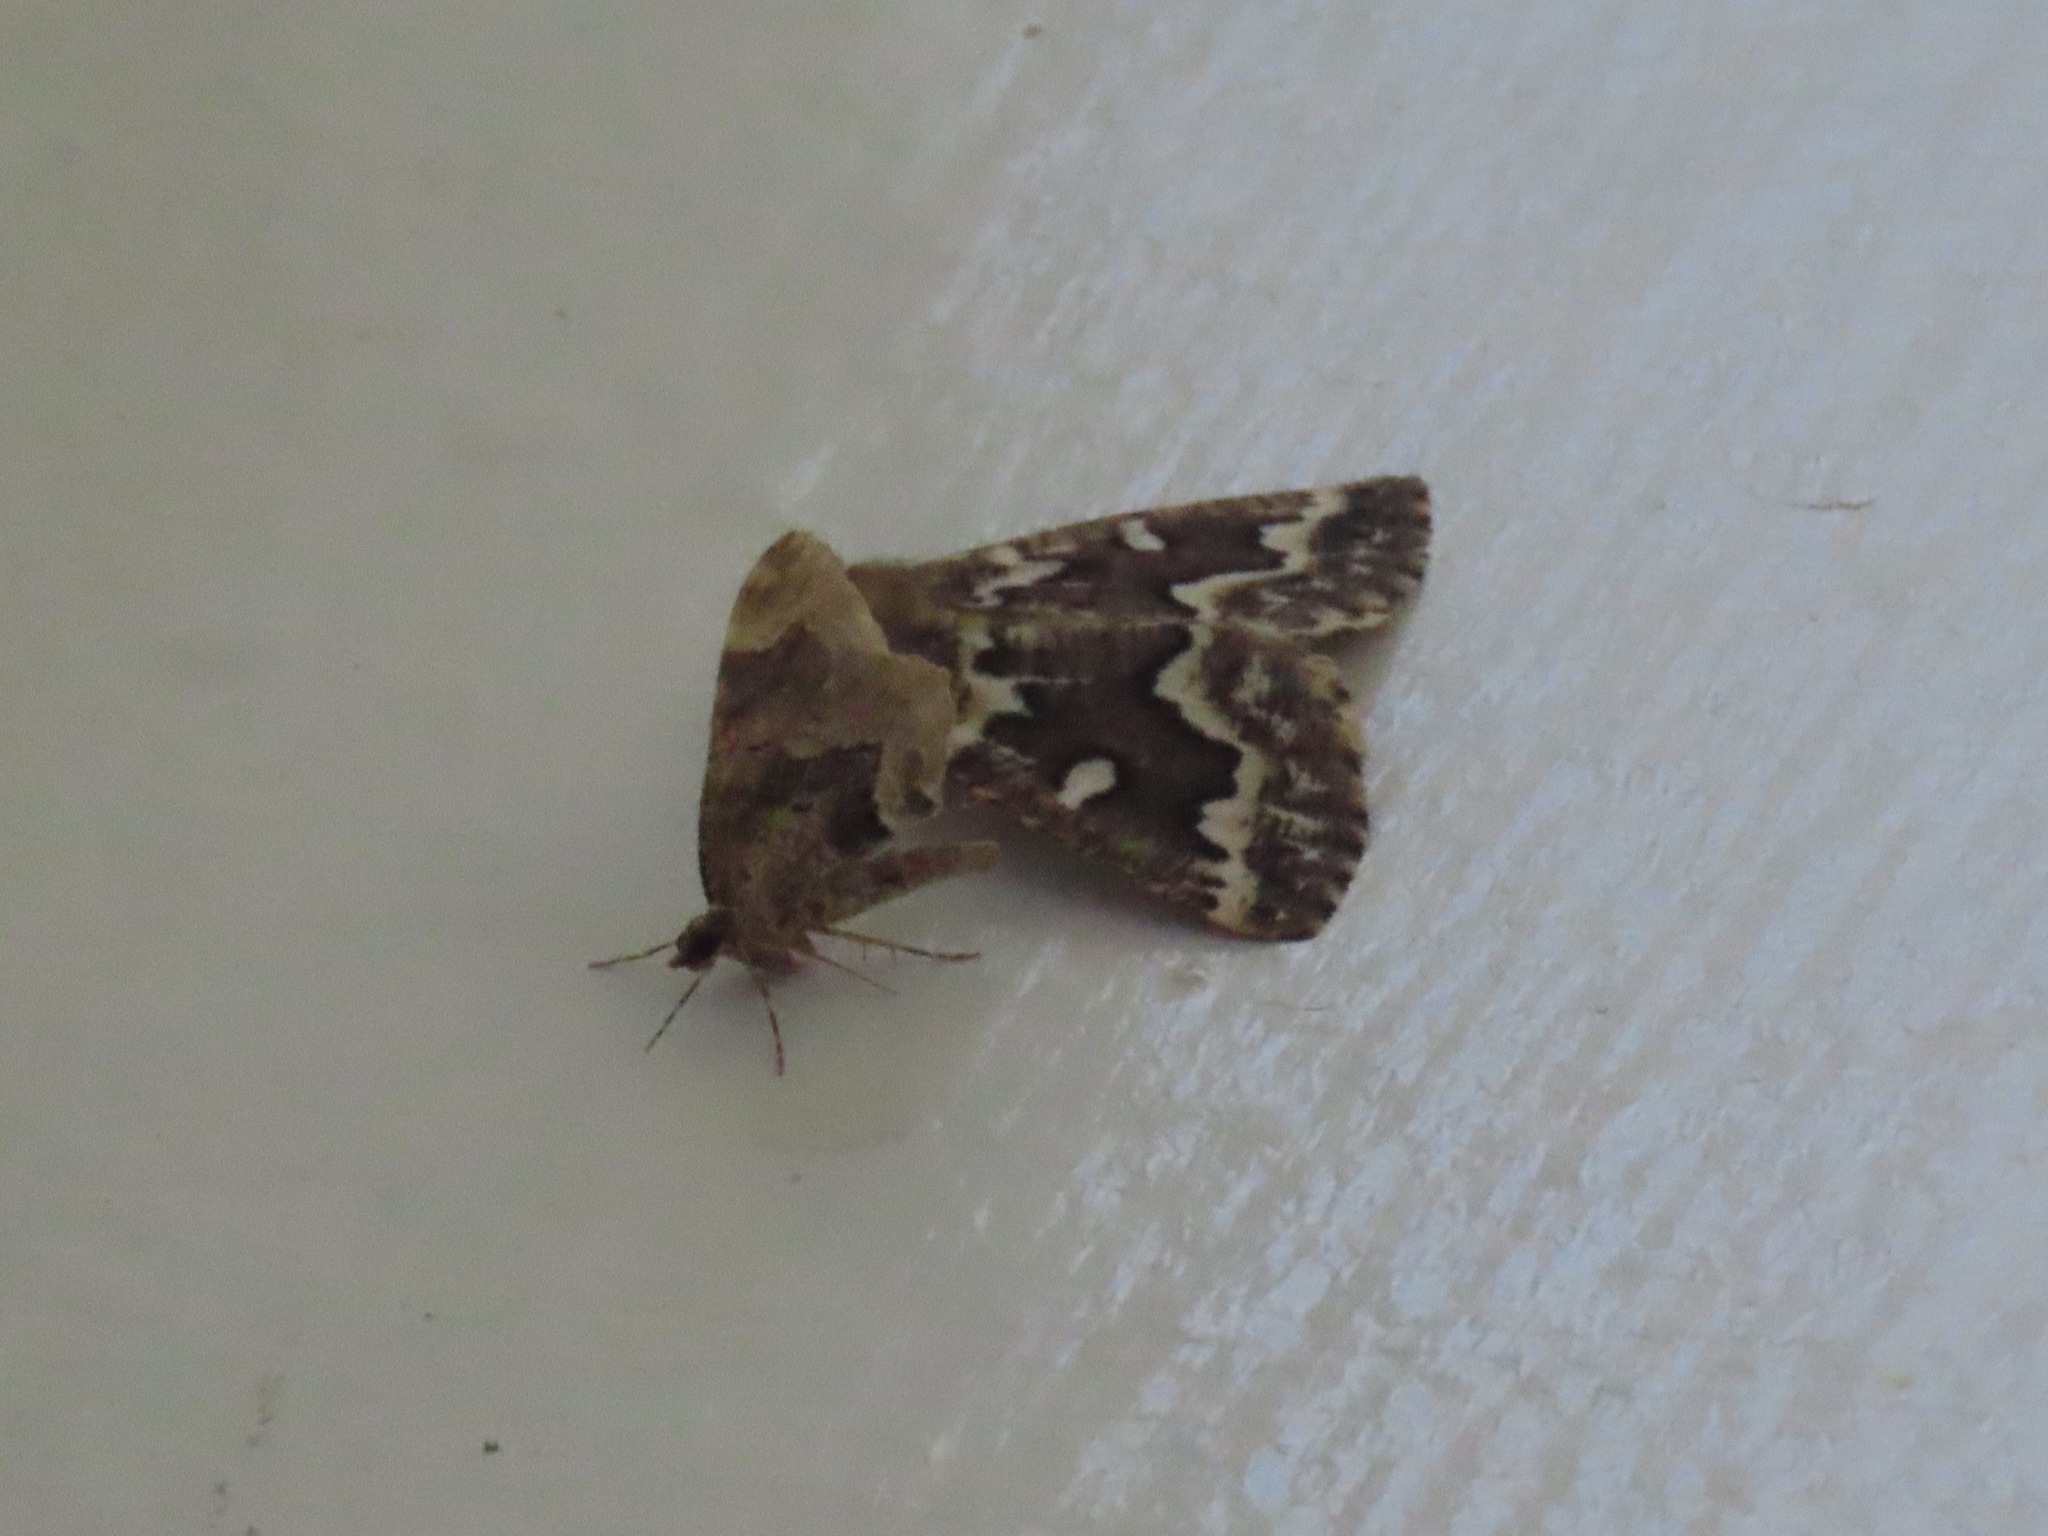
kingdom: Animalia
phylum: Arthropoda
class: Insecta
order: Lepidoptera
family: Geometridae
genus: Caripeta
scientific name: Caripeta divisata
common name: Gray spruce looper
